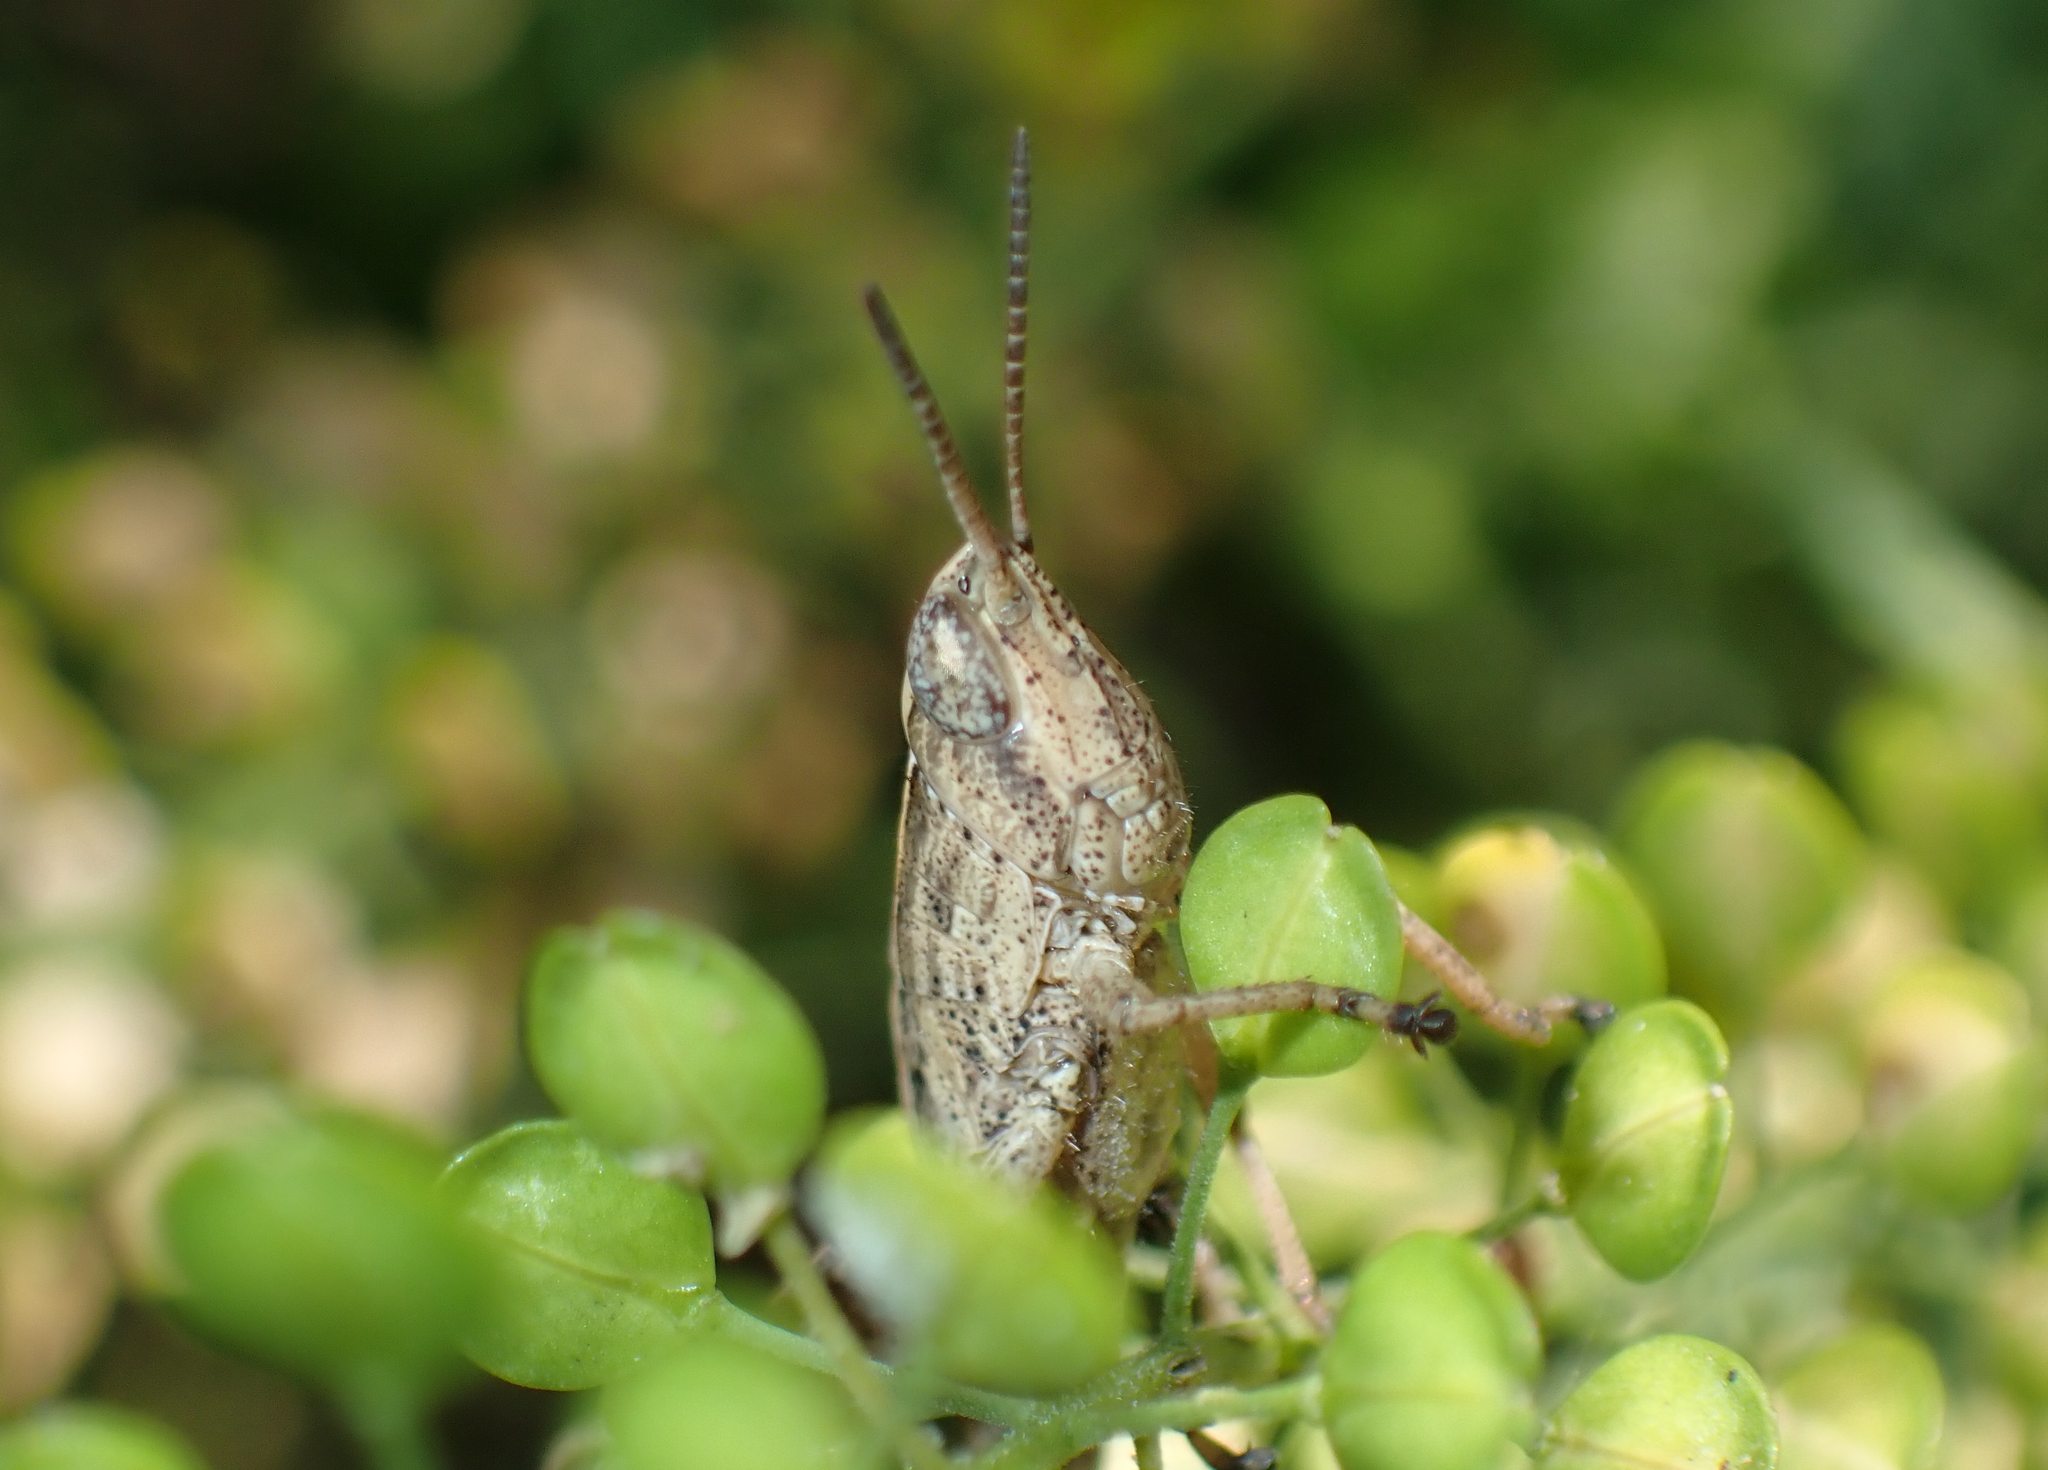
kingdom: Animalia
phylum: Arthropoda
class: Insecta
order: Orthoptera
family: Acrididae
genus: Dichromorpha
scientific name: Dichromorpha viridis
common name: Short-winged green grasshopper
